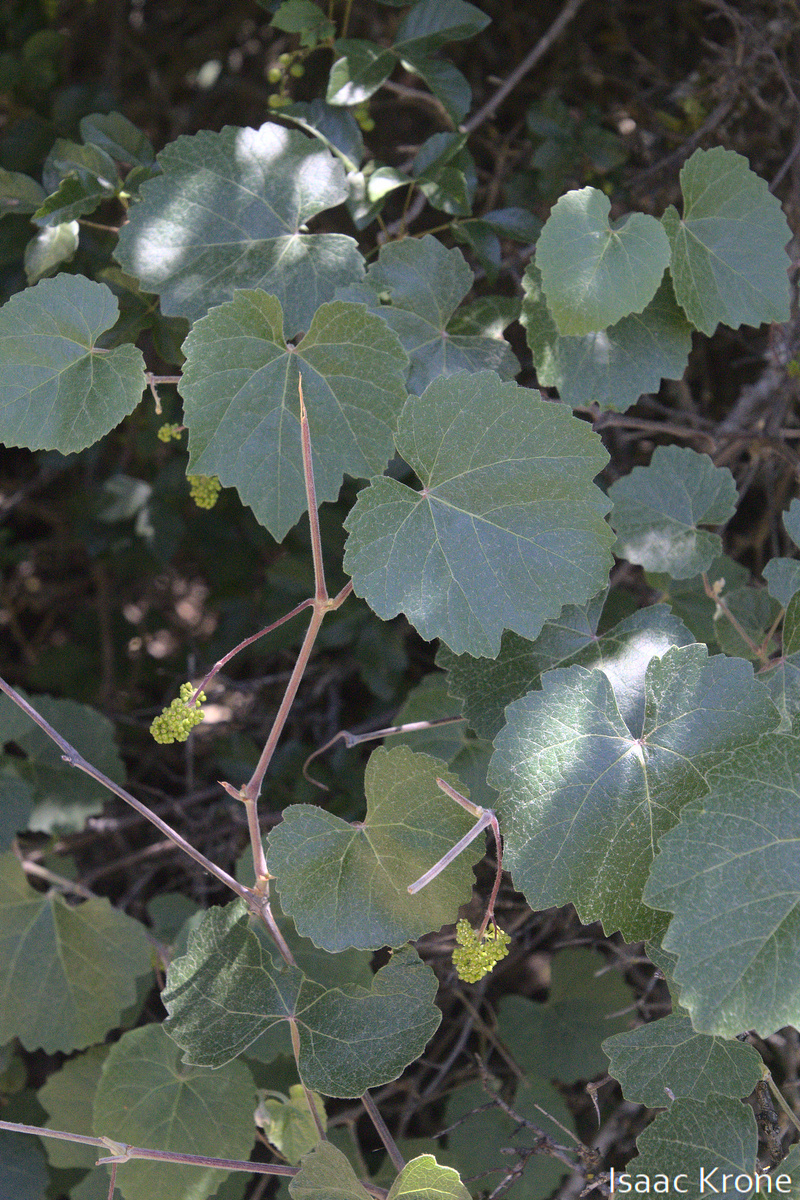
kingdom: Plantae
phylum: Tracheophyta
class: Magnoliopsida
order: Vitales
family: Vitaceae
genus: Vitis
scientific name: Vitis californica
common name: California wild grape
